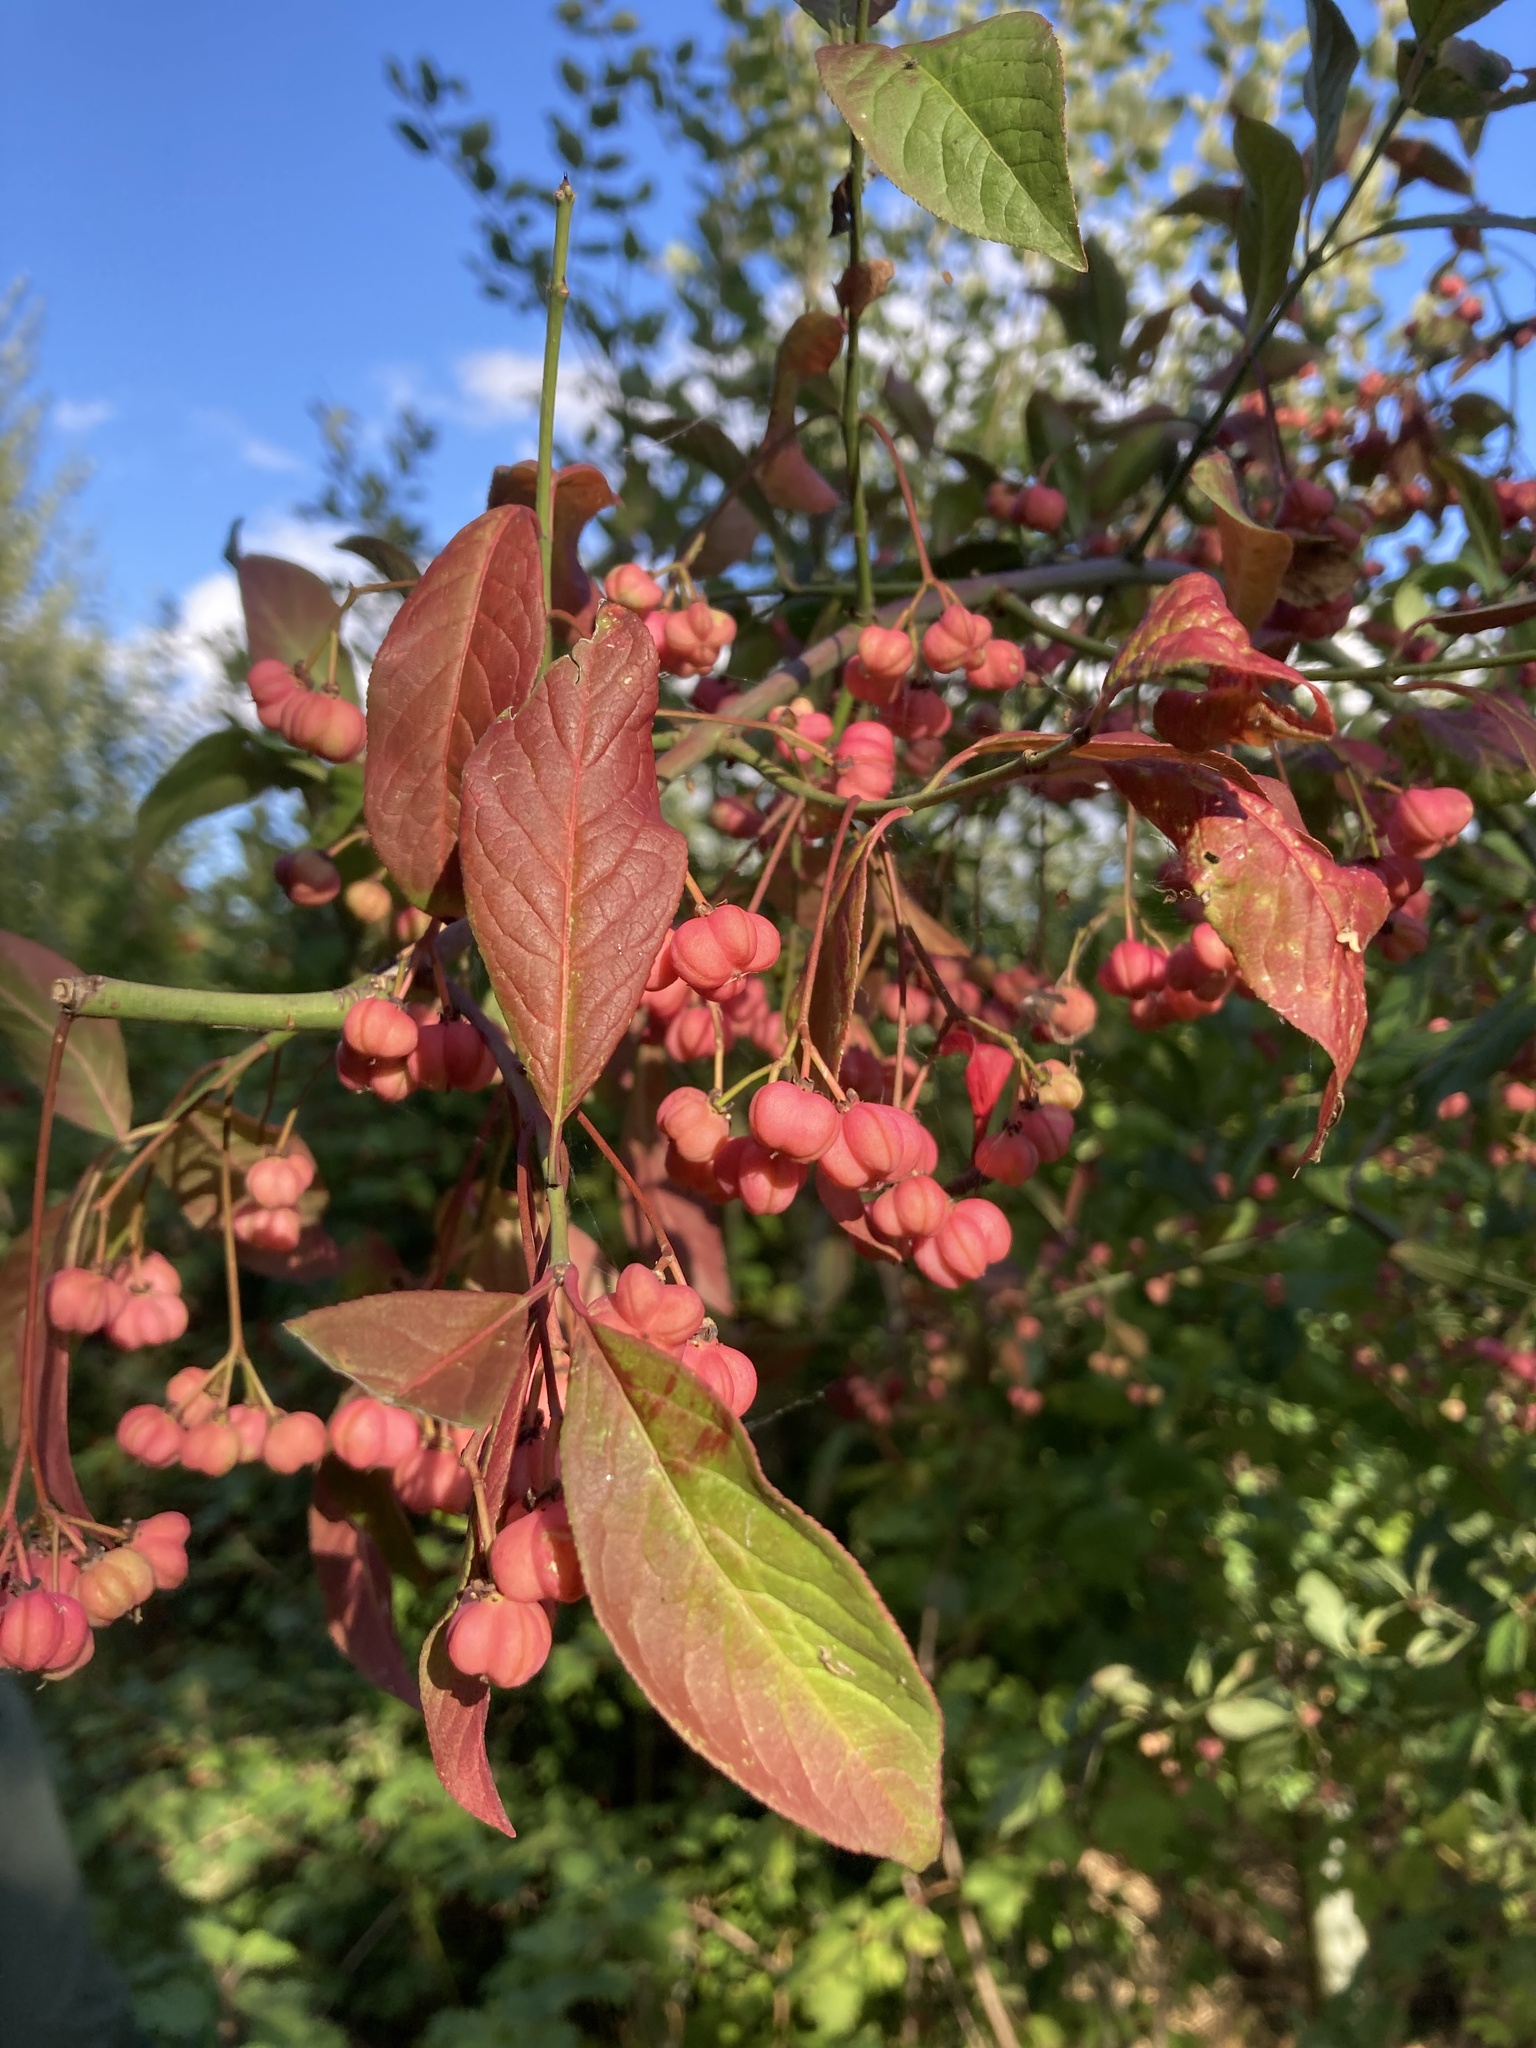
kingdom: Plantae
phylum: Tracheophyta
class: Magnoliopsida
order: Celastrales
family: Celastraceae
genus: Euonymus
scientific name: Euonymus europaeus
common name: Spindle
